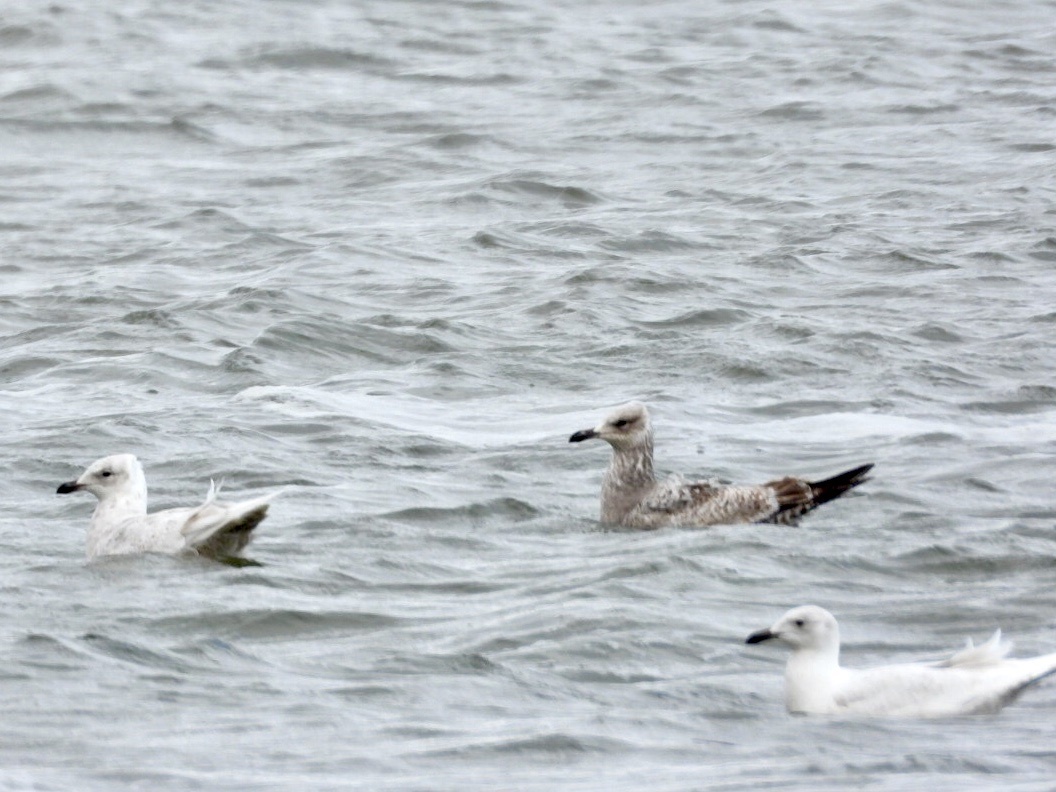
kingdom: Animalia
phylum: Chordata
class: Aves
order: Charadriiformes
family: Laridae
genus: Larus
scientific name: Larus argentatus
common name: Herring gull
